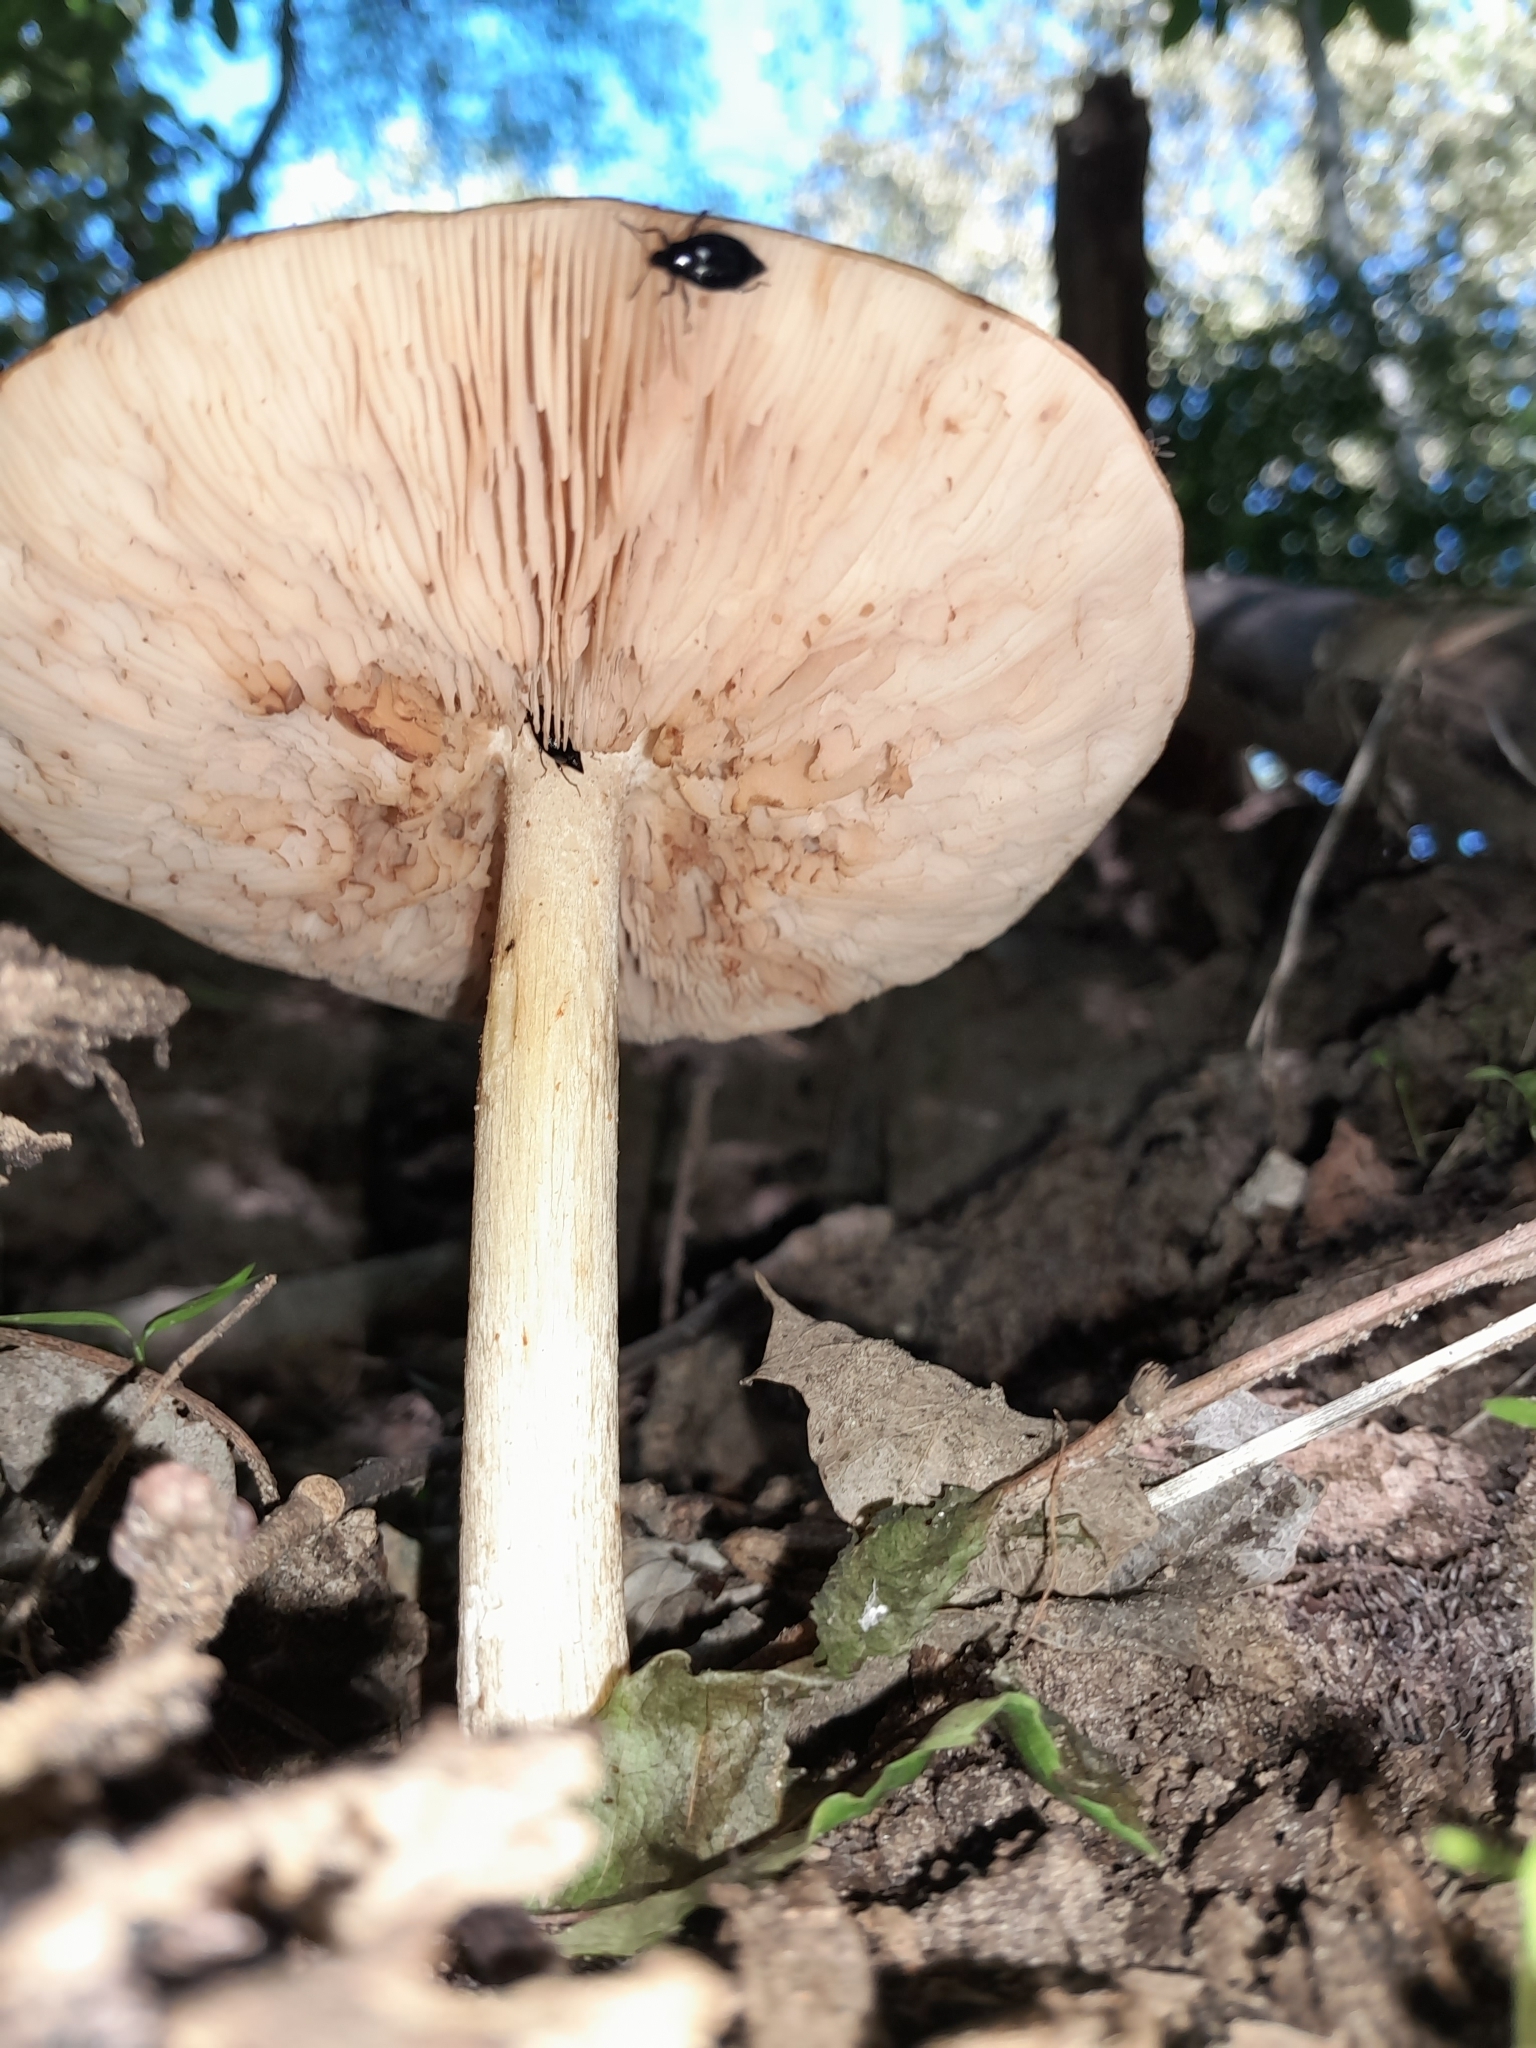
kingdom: Fungi
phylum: Basidiomycota
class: Agaricomycetes
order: Agaricales
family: Pluteaceae
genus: Pluteus
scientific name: Pluteus cervinus
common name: Deer shield
